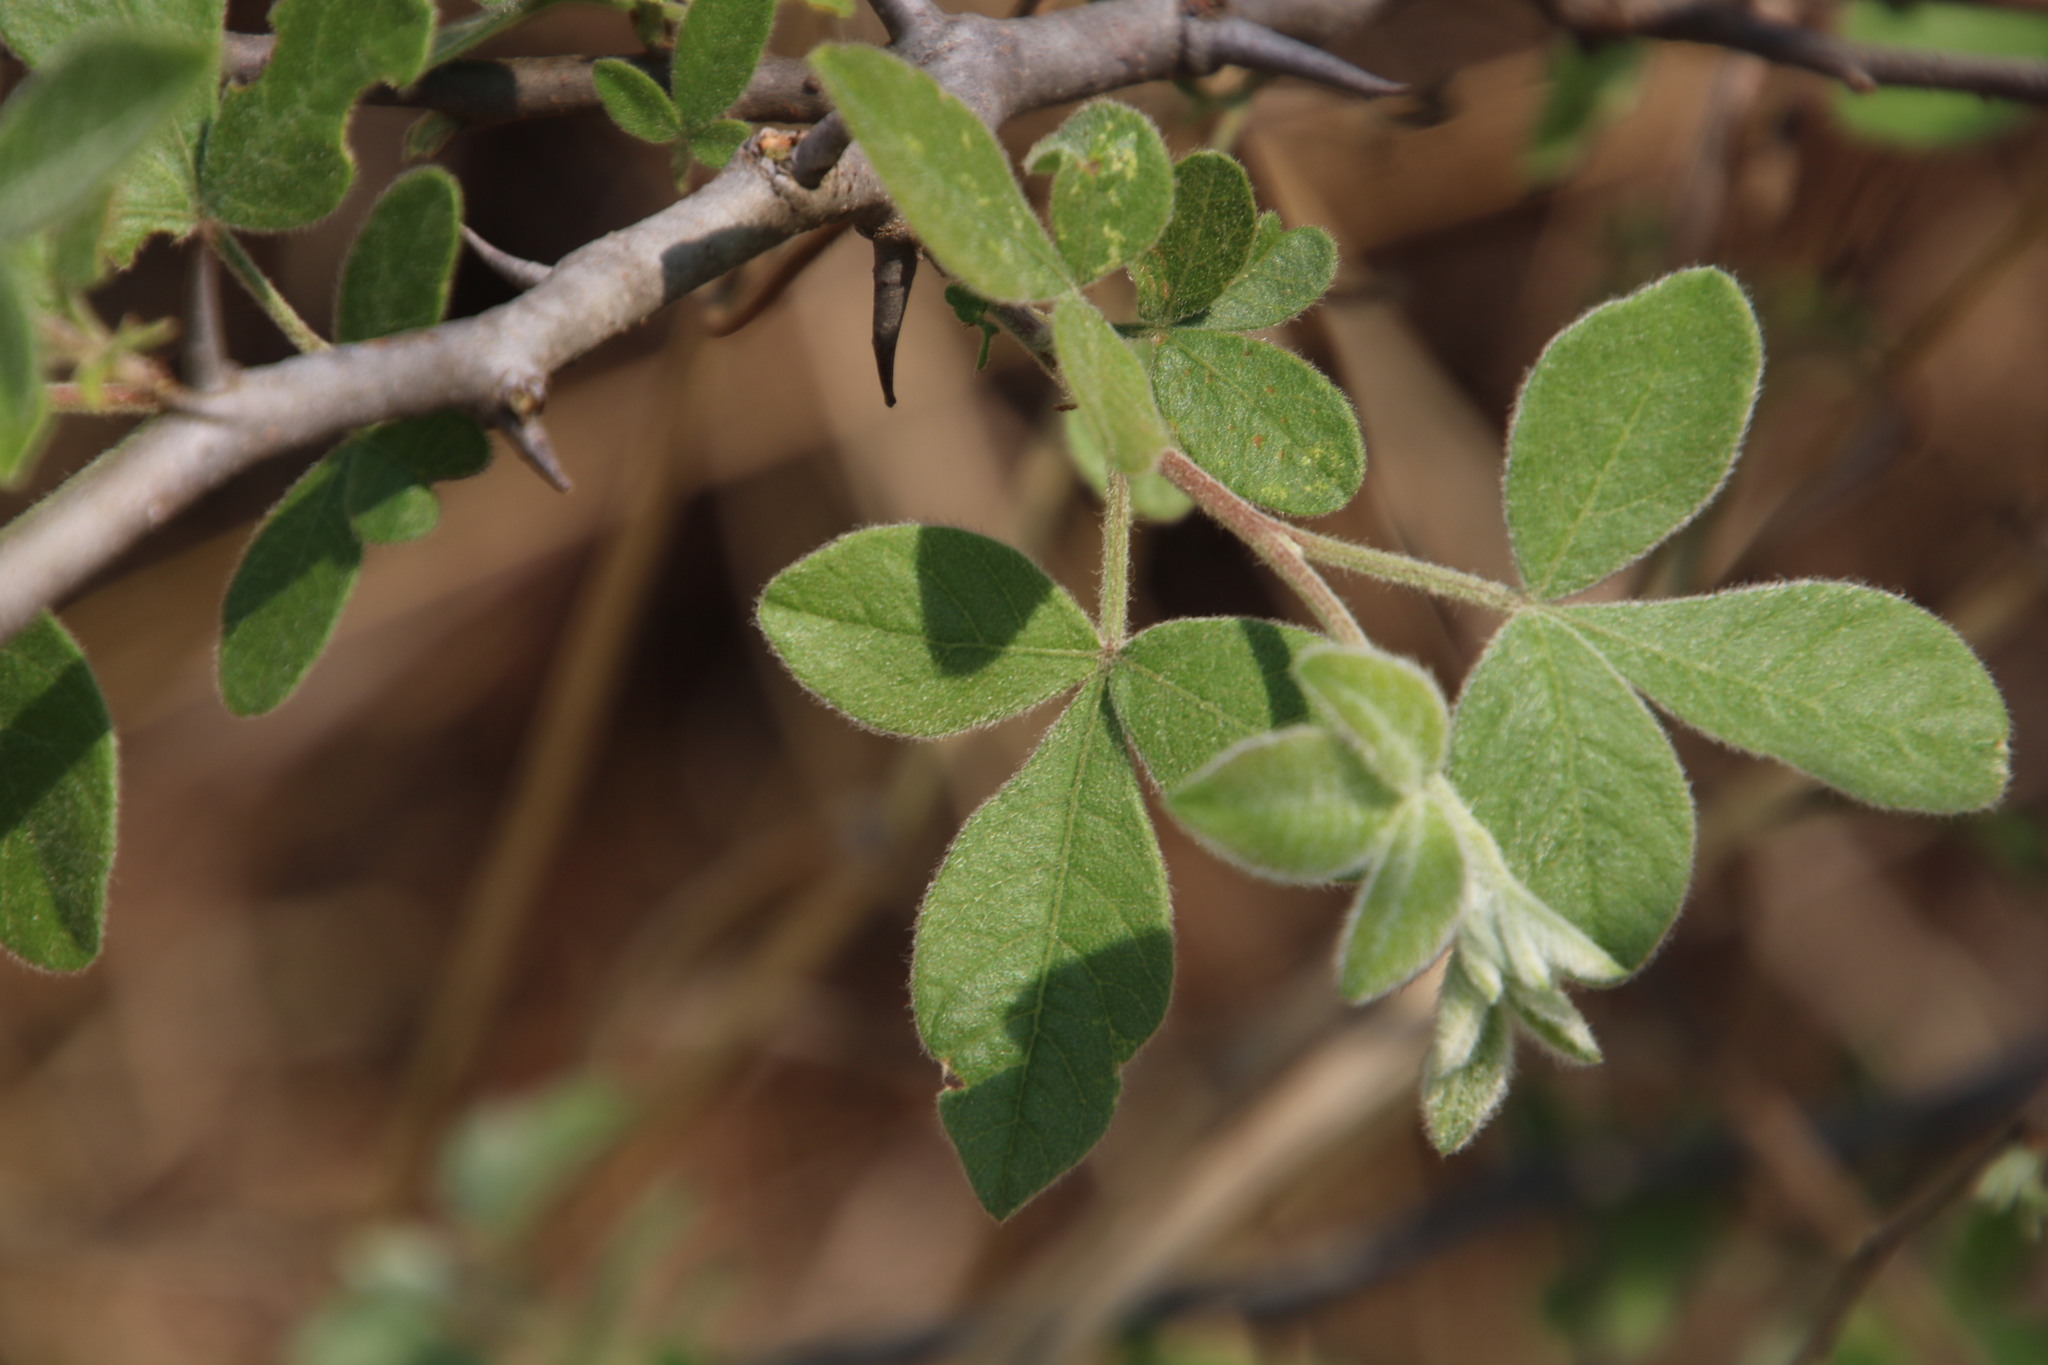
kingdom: Plantae
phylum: Tracheophyta
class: Magnoliopsida
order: Sapindales
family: Anacardiaceae
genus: Searsia
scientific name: Searsia pyroides
